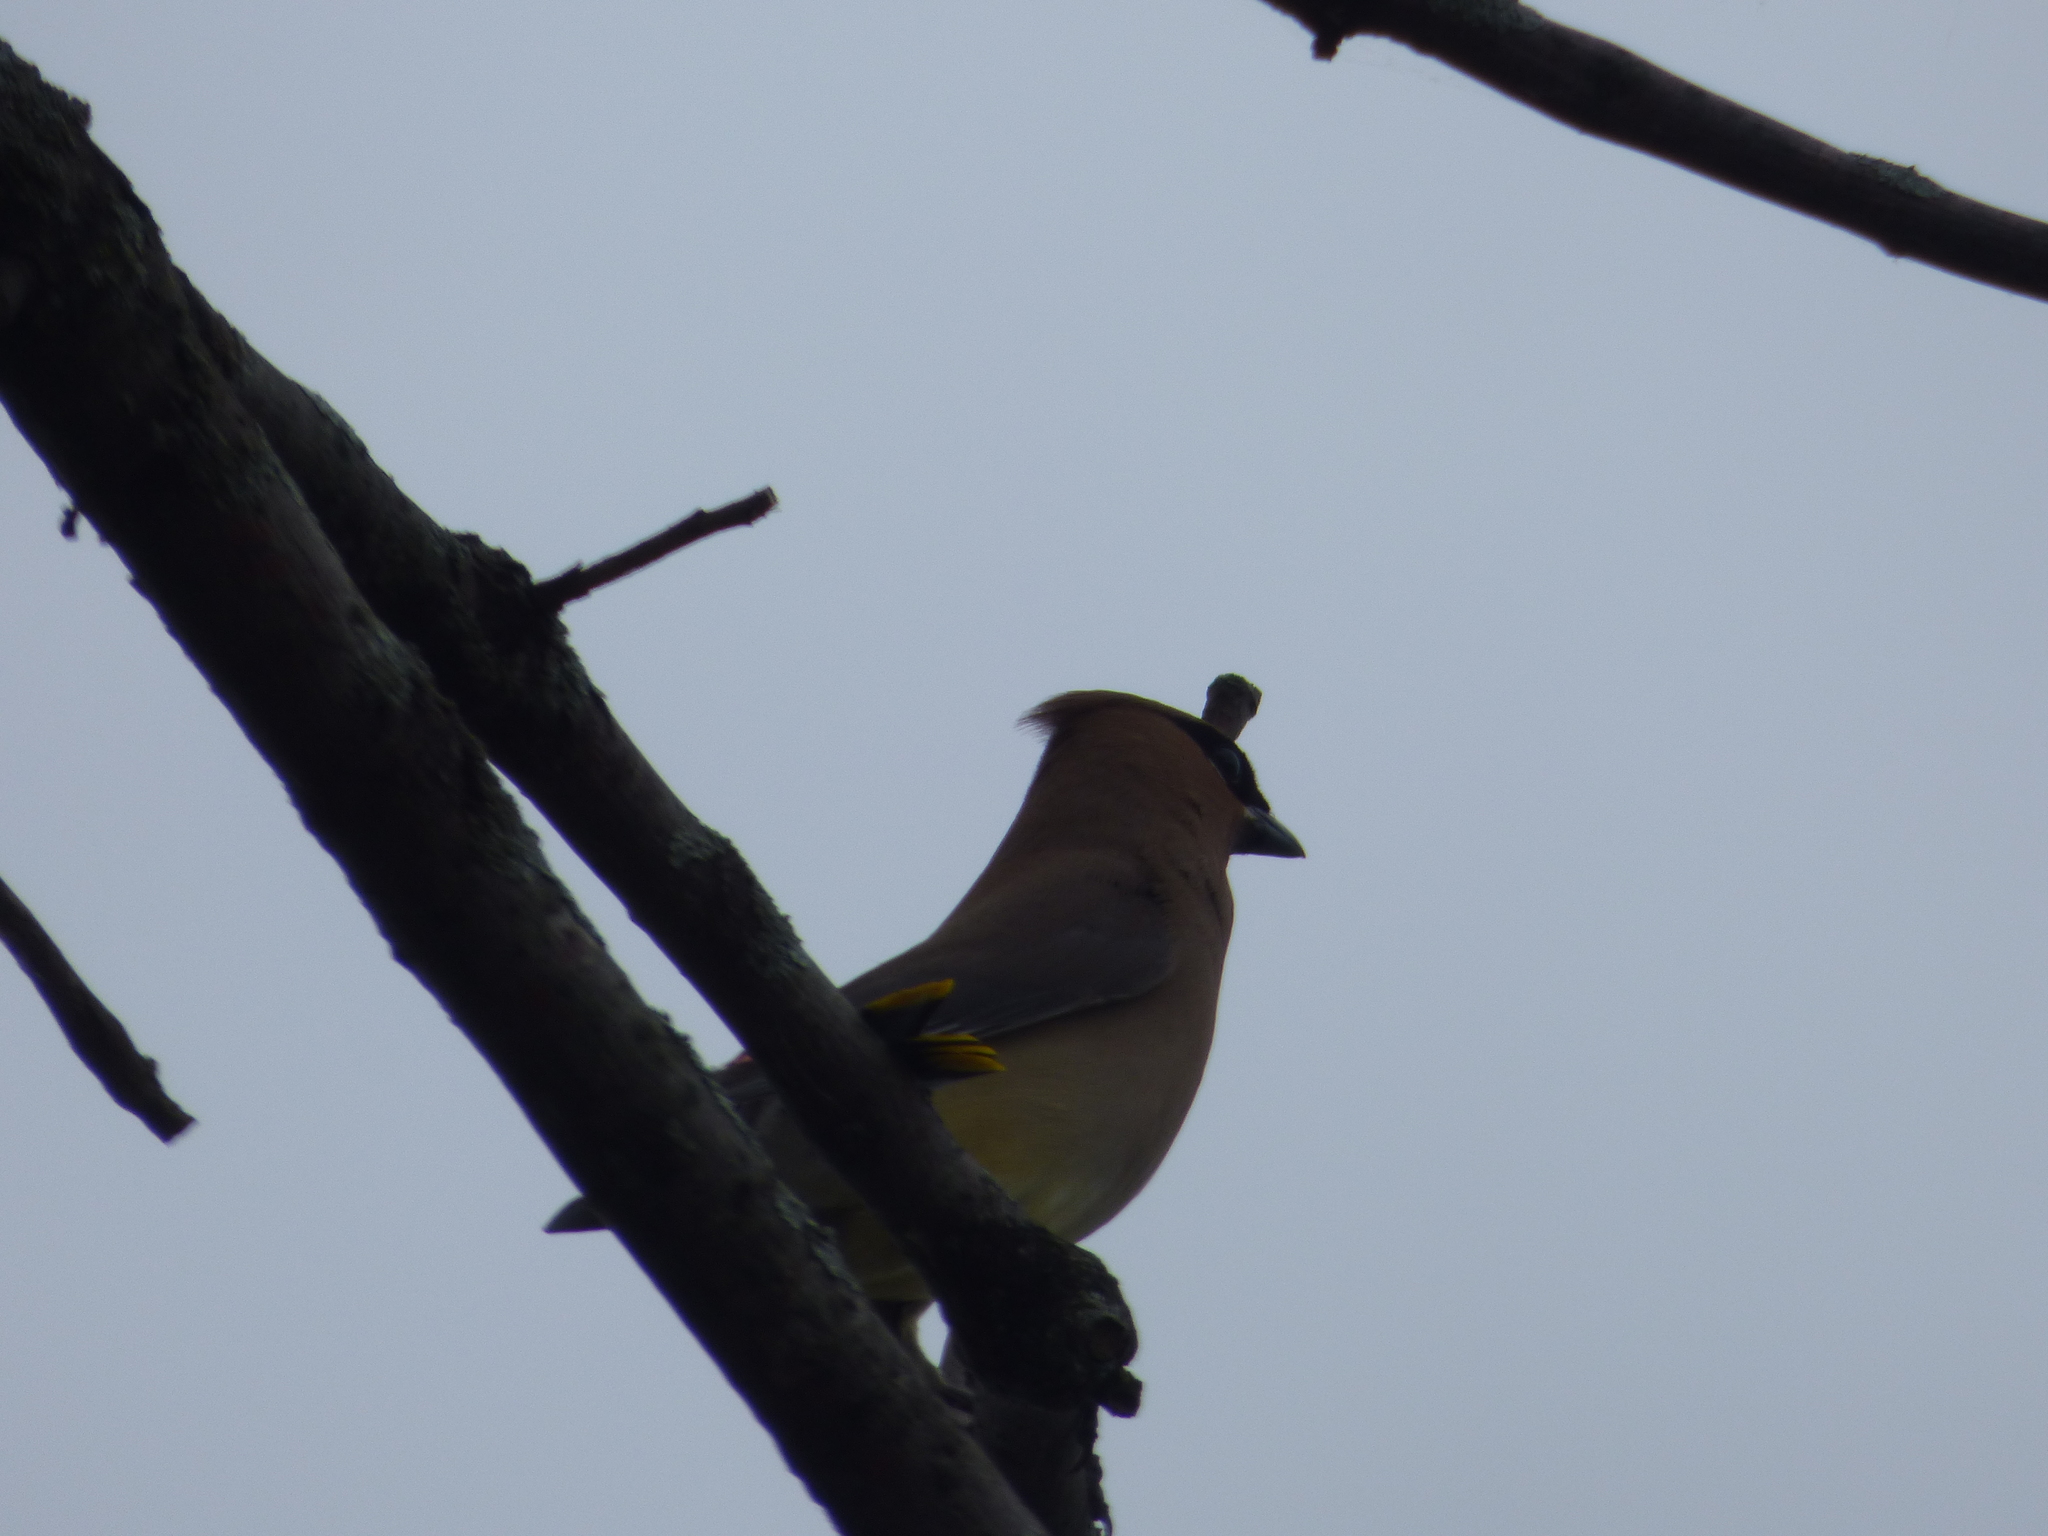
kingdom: Animalia
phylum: Chordata
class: Aves
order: Passeriformes
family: Bombycillidae
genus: Bombycilla
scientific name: Bombycilla cedrorum
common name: Cedar waxwing
